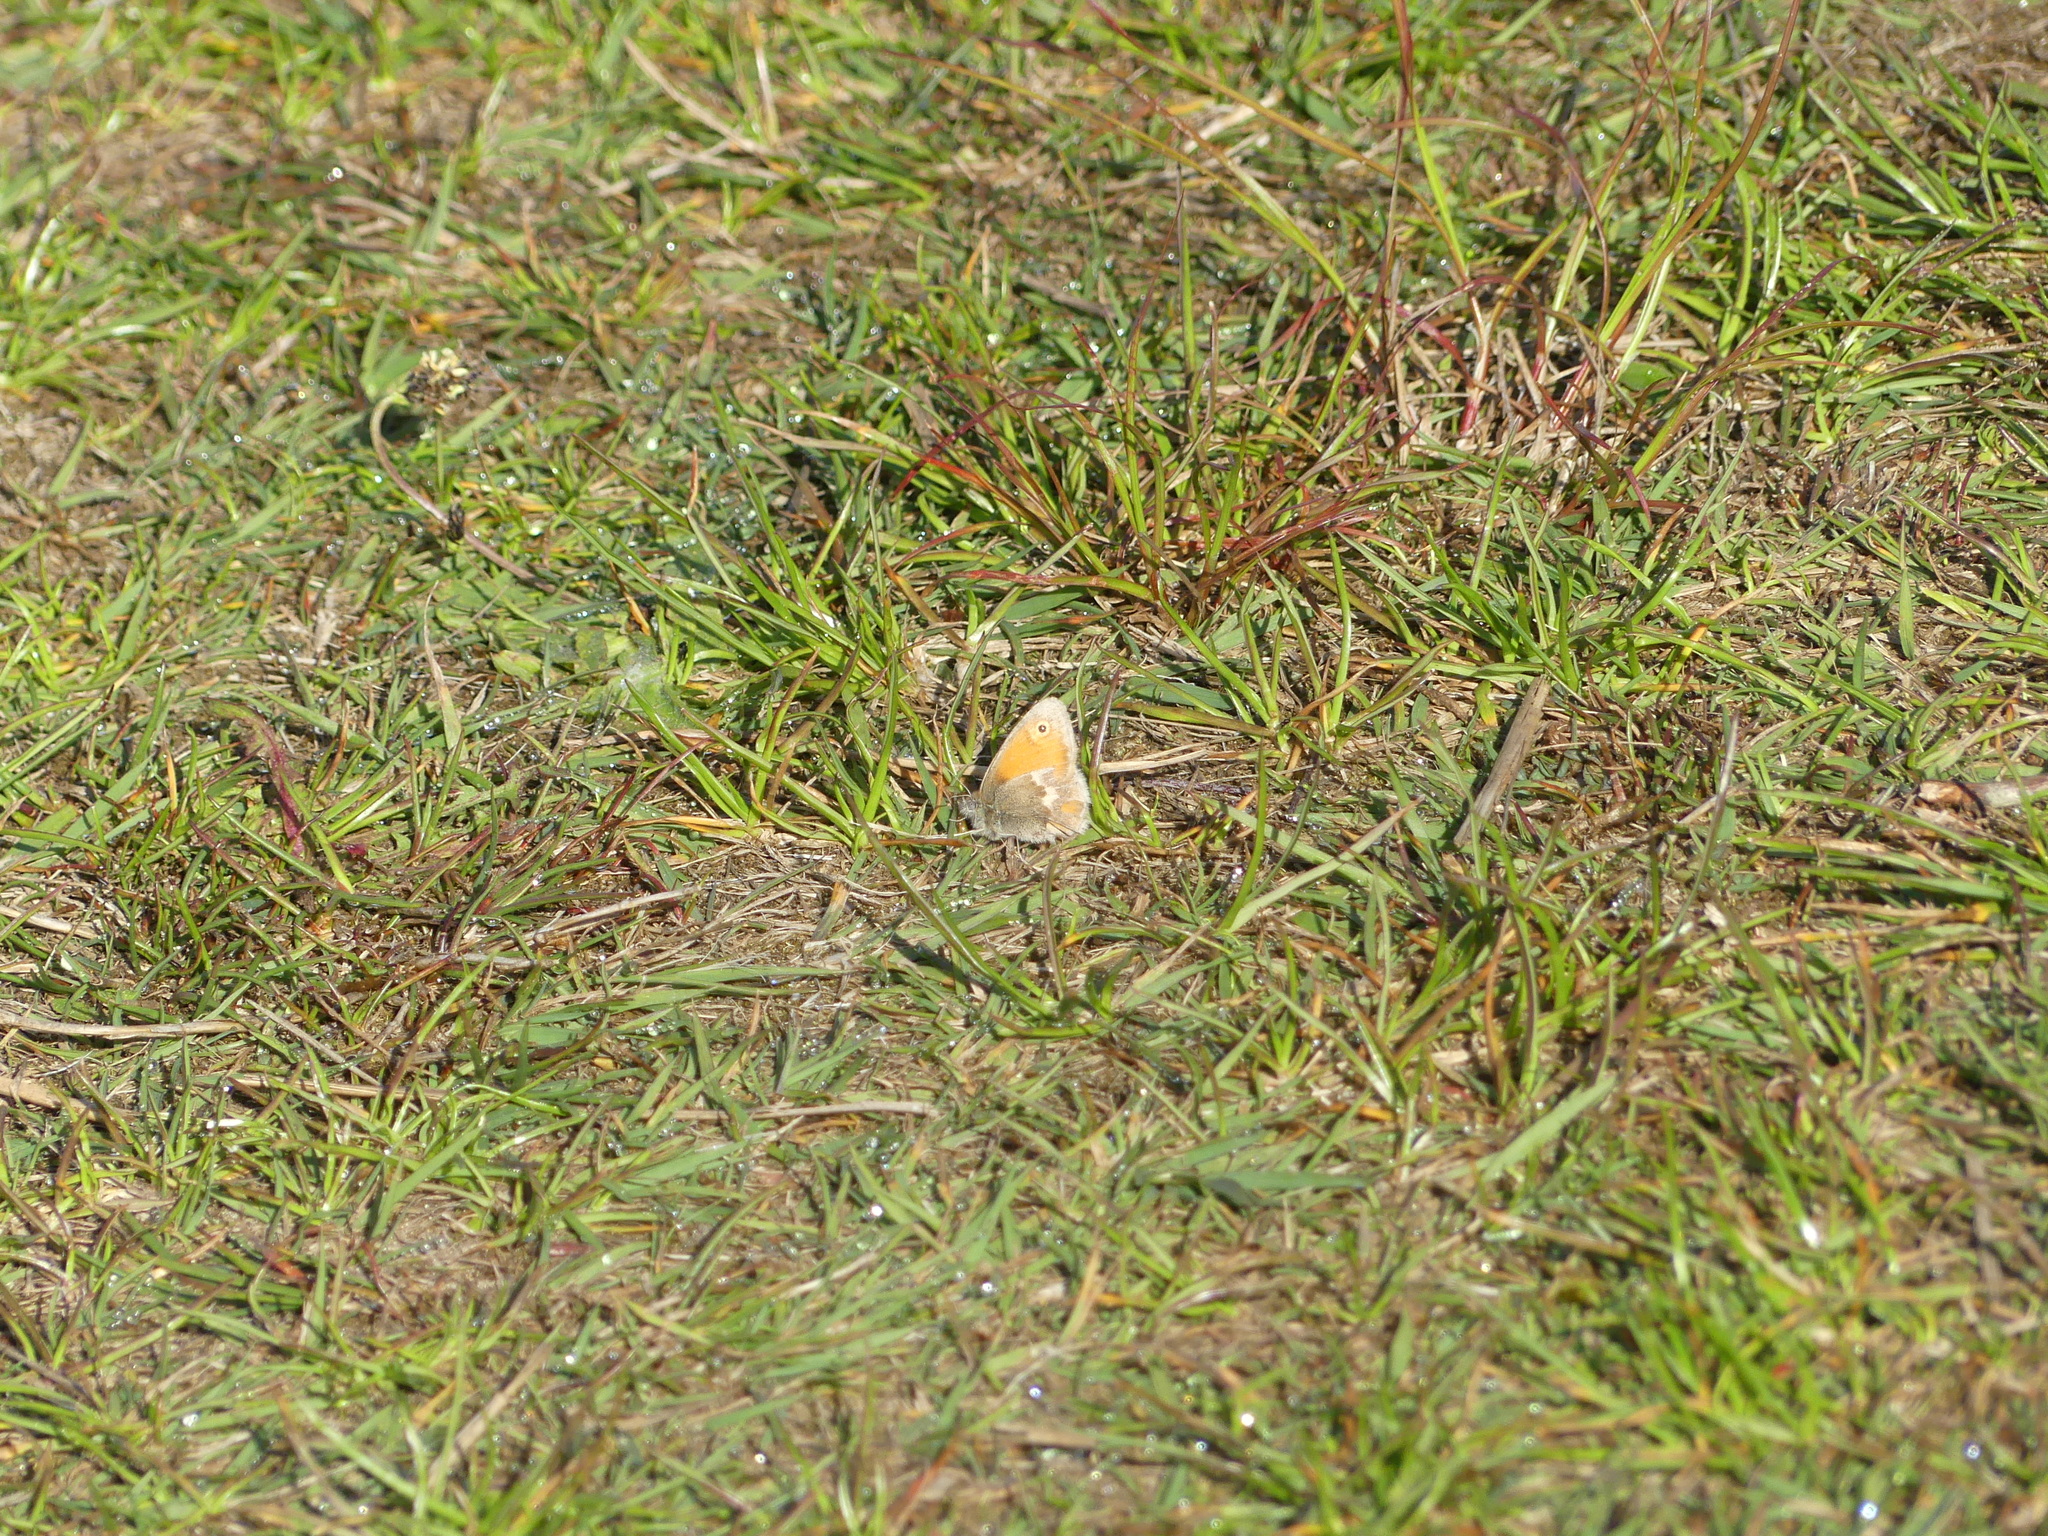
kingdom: Animalia
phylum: Arthropoda
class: Insecta
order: Lepidoptera
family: Nymphalidae
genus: Coenonympha
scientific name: Coenonympha pamphilus
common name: Small heath
